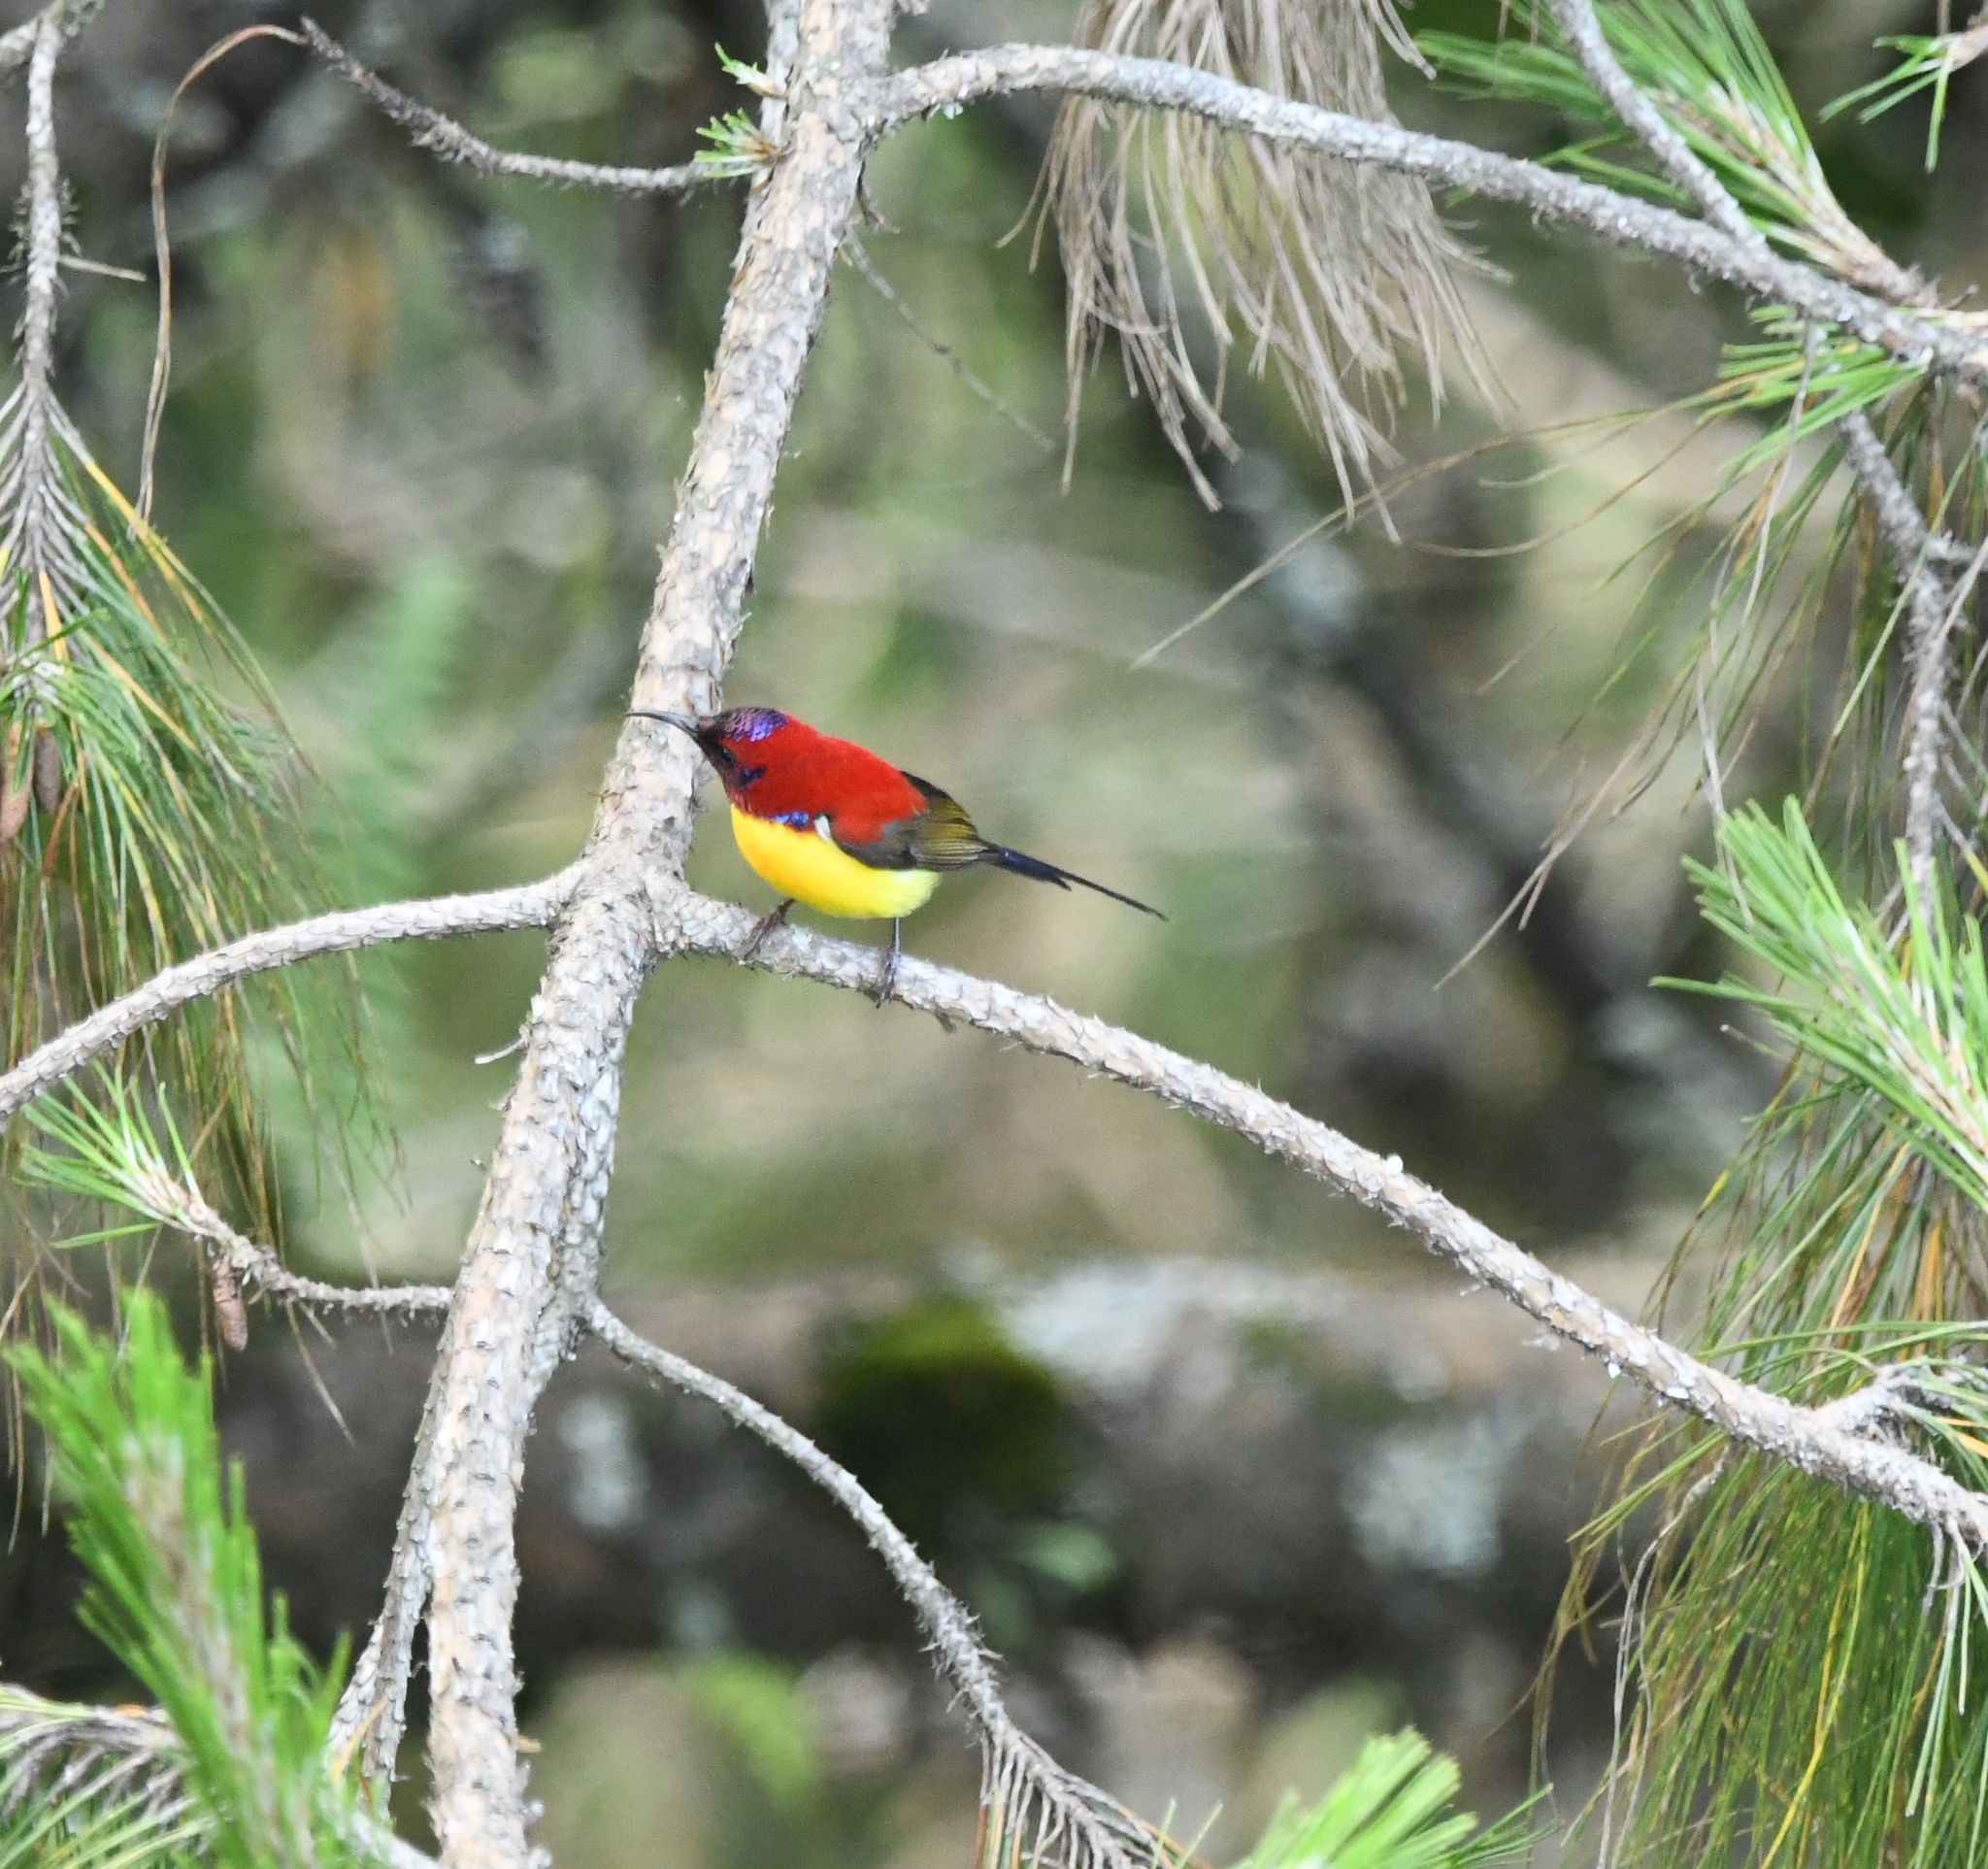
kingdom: Animalia
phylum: Chordata
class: Aves
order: Passeriformes
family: Nectariniidae
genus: Aethopyga
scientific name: Aethopyga gouldiae
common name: Mrs. gould's sunbird
